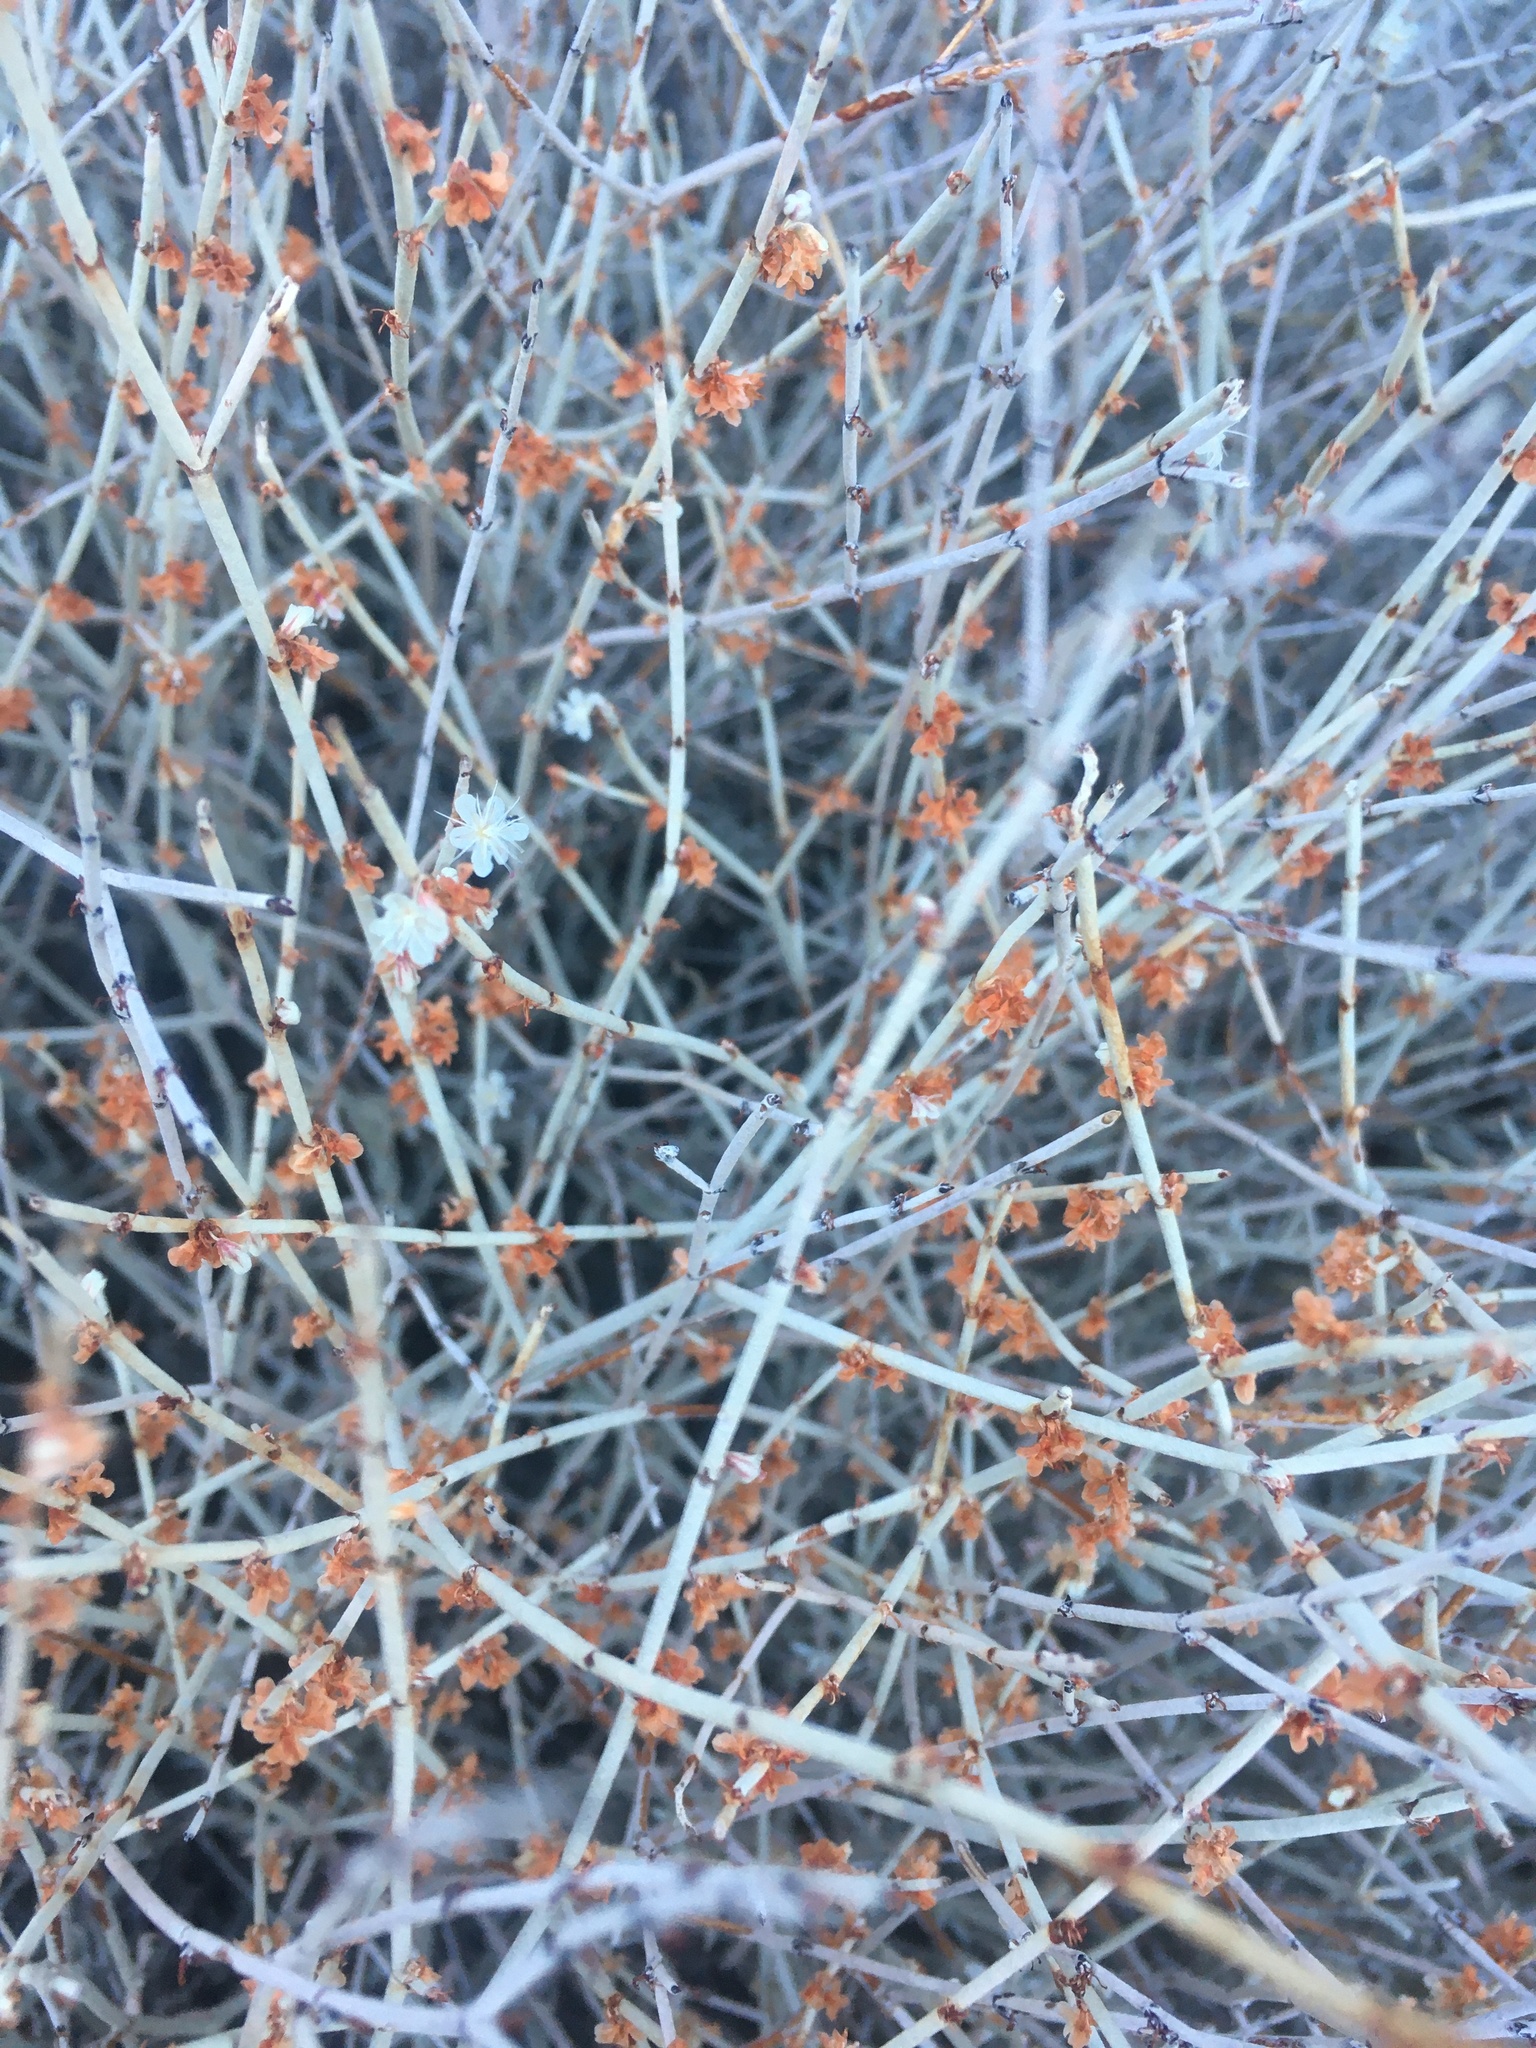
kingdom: Plantae
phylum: Tracheophyta
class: Magnoliopsida
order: Caryophyllales
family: Polygonaceae
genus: Eriogonum
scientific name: Eriogonum wrightii
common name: Bastard-sage
